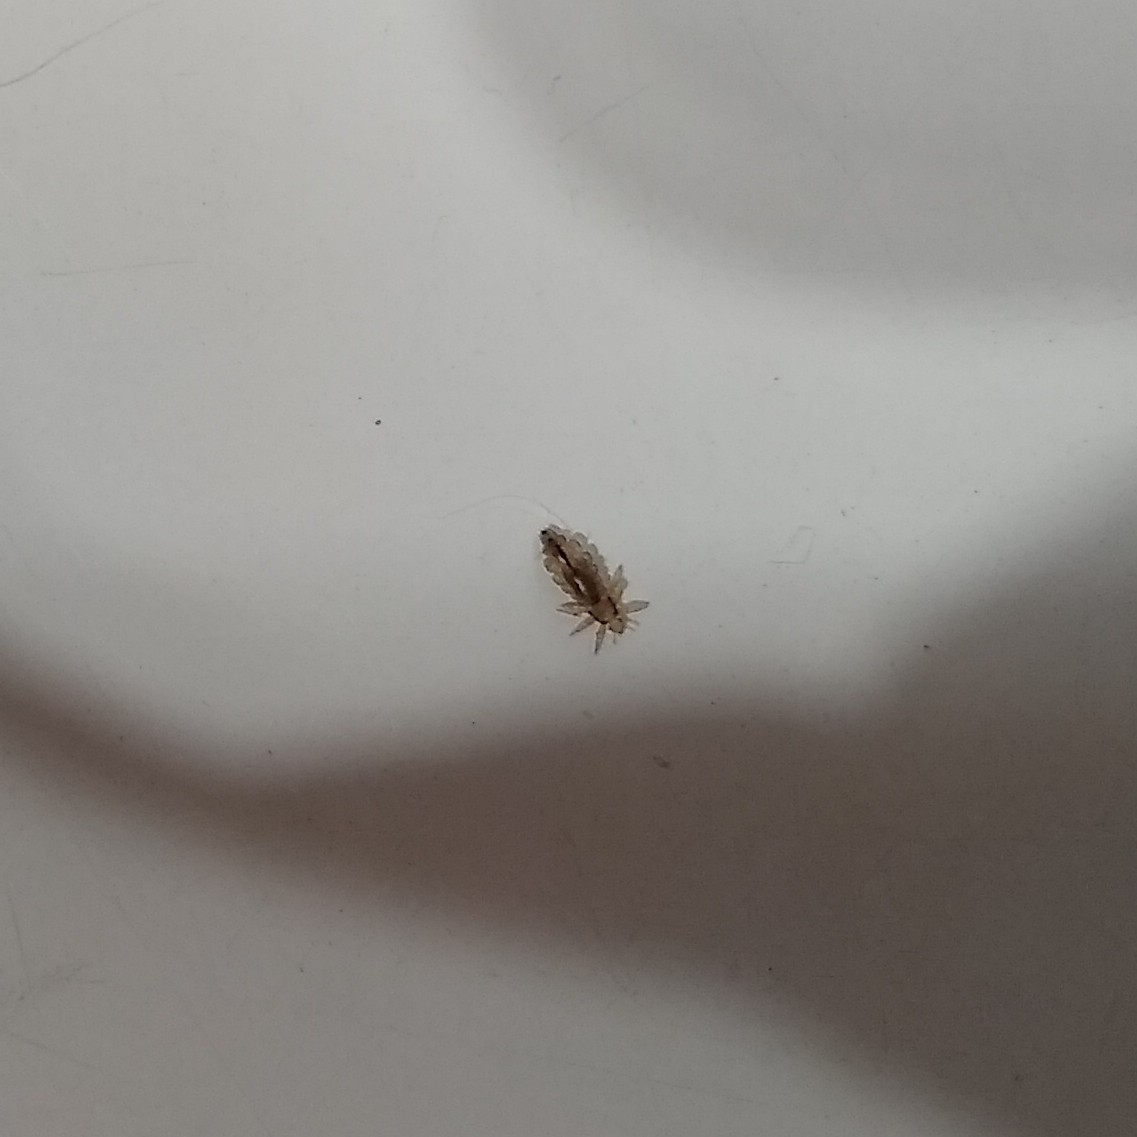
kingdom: Animalia
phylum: Arthropoda
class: Insecta
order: Psocodea
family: Pediculidae
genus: Pediculus
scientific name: Pediculus humanus
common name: Body louse
